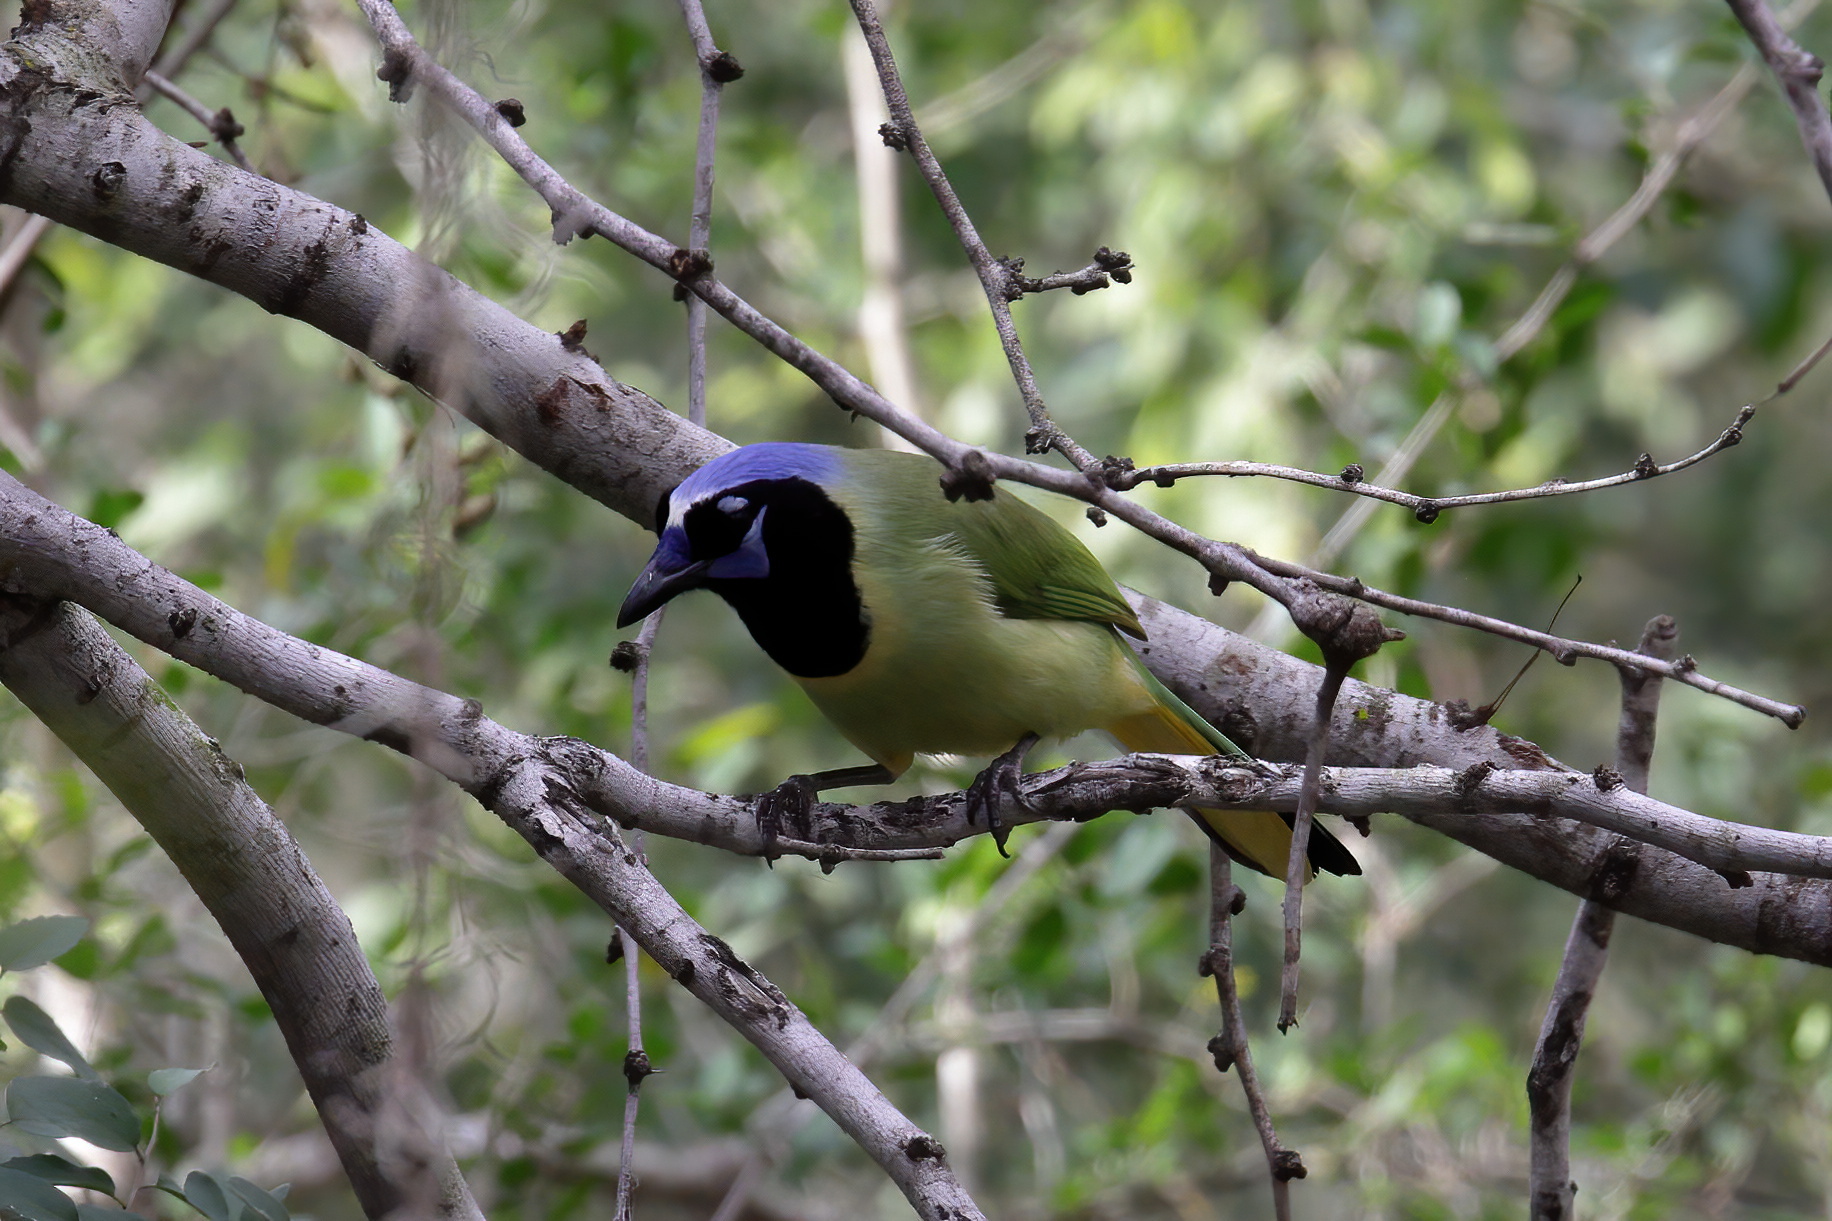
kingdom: Animalia
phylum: Chordata
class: Aves
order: Passeriformes
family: Corvidae
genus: Cyanocorax
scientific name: Cyanocorax yncas
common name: Green jay
